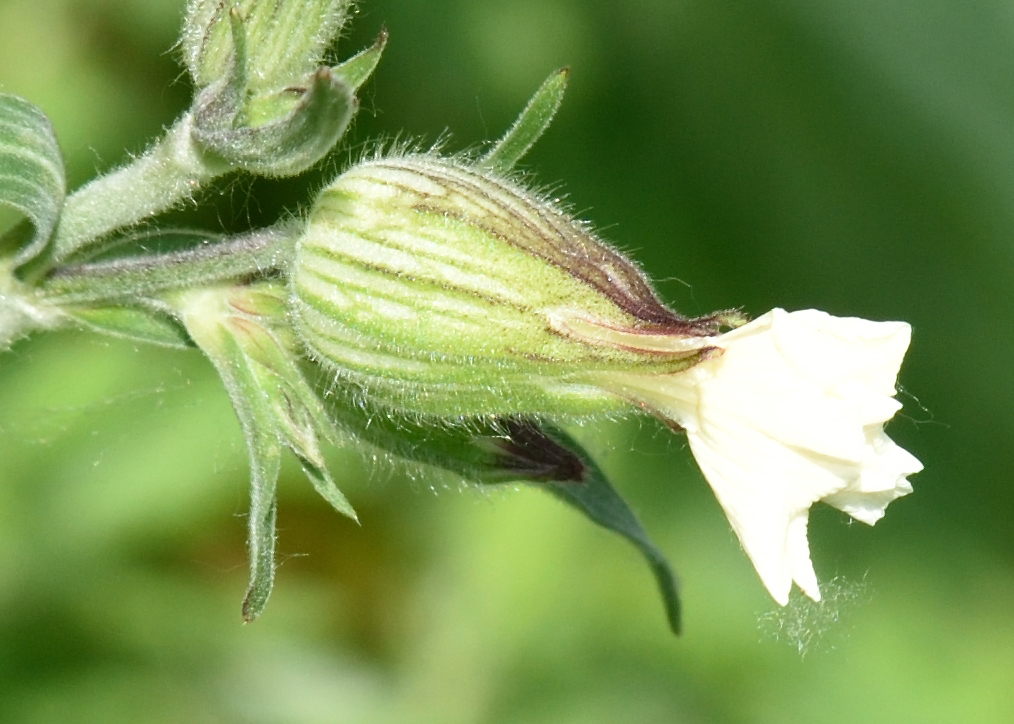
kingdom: Plantae
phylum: Tracheophyta
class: Magnoliopsida
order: Caryophyllales
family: Caryophyllaceae
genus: Silene
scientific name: Silene latifolia
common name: White campion
